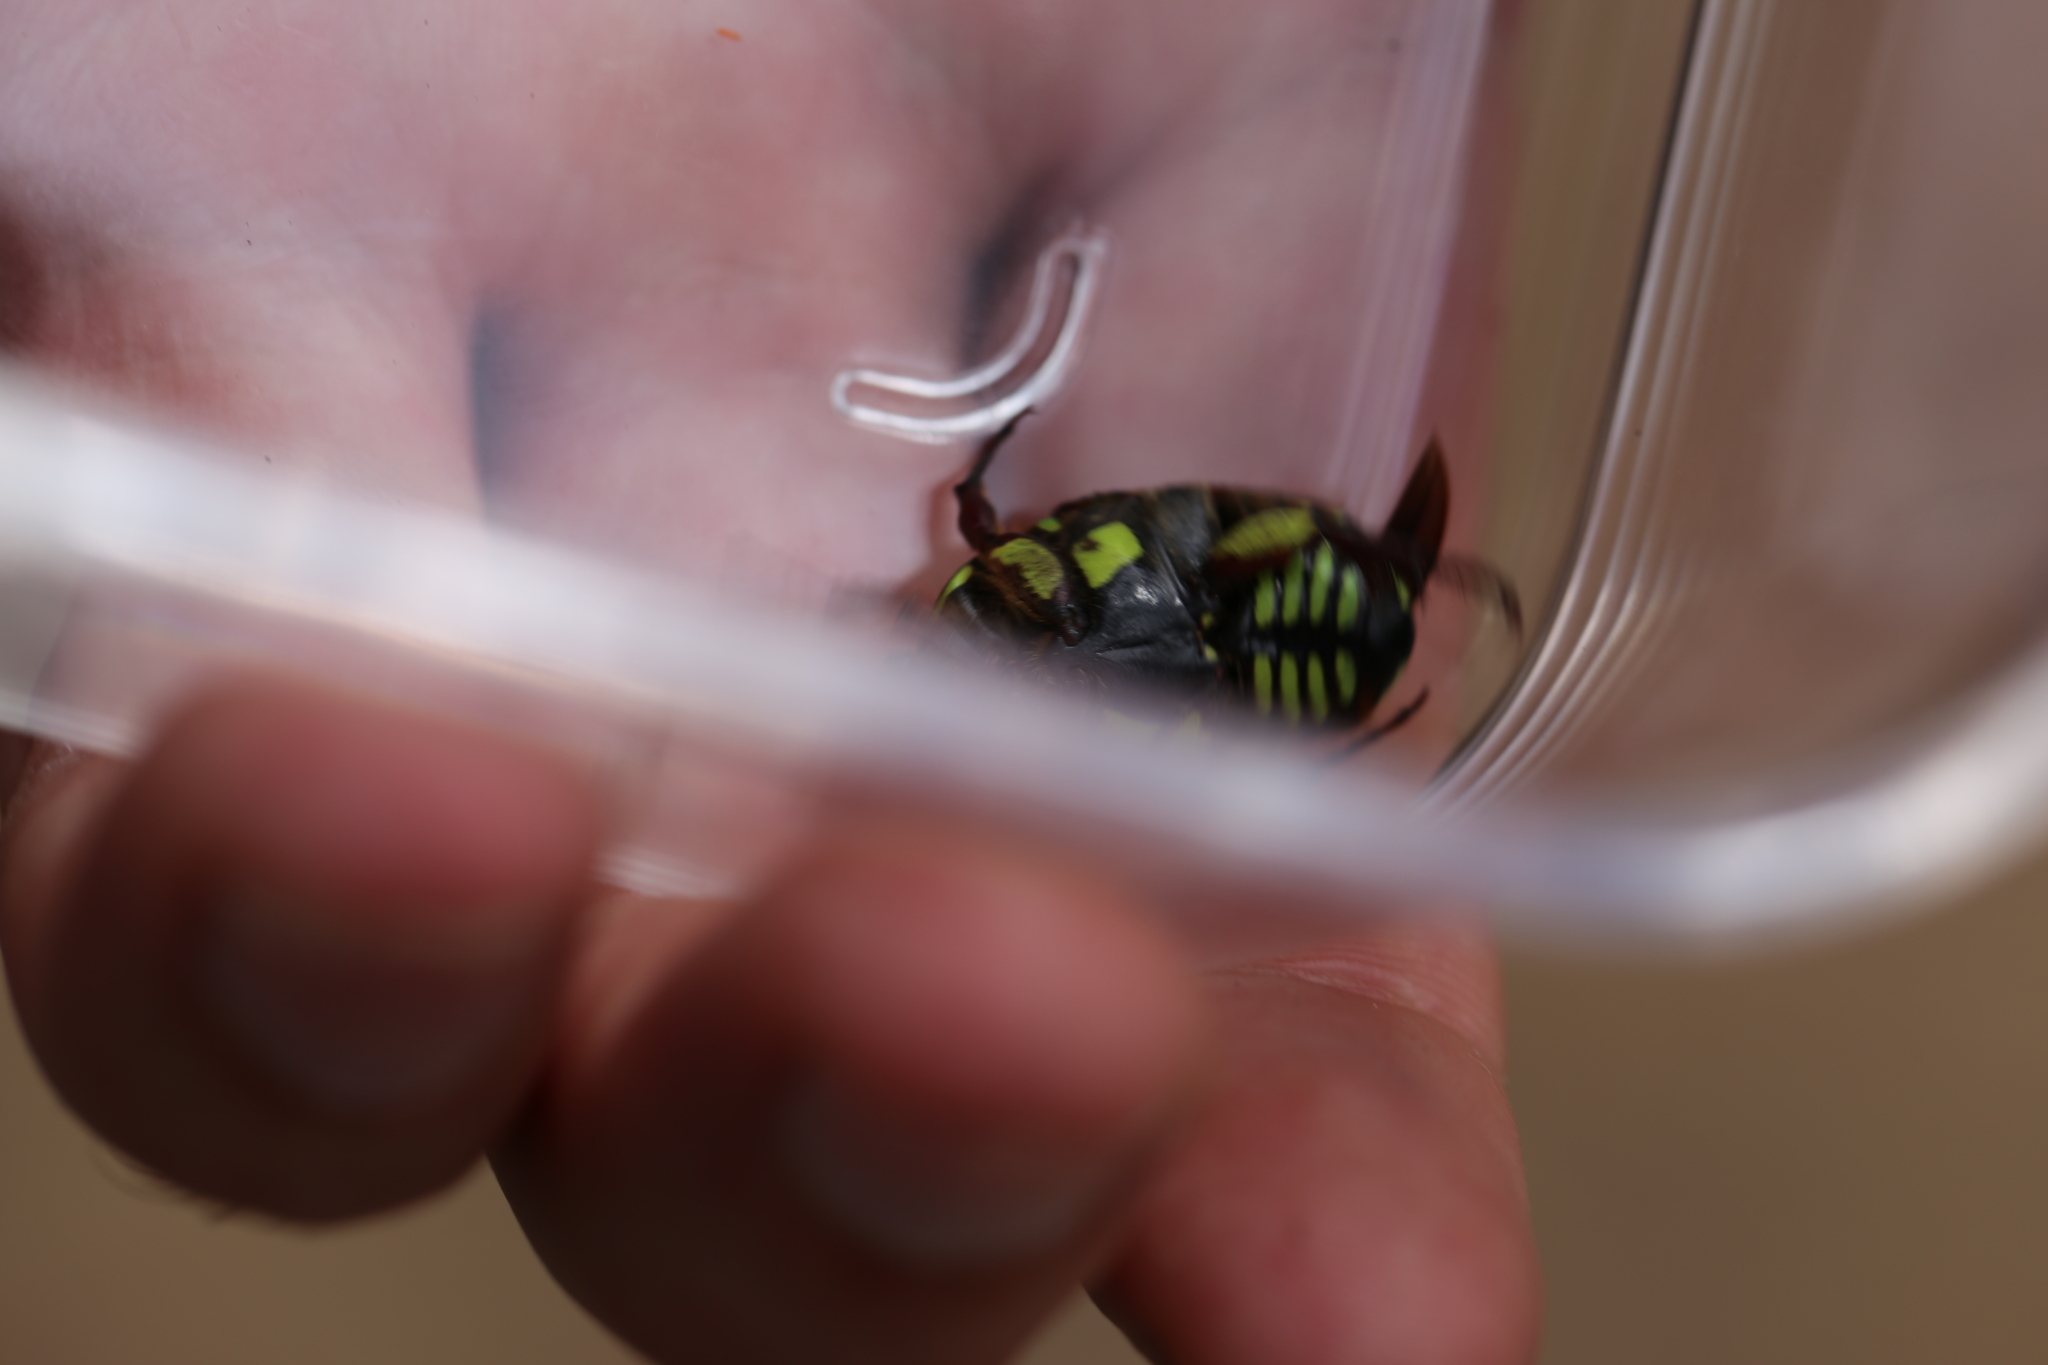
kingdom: Animalia
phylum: Arthropoda
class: Insecta
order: Coleoptera
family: Scarabaeidae
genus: Chlorobapta
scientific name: Chlorobapta frontalis
